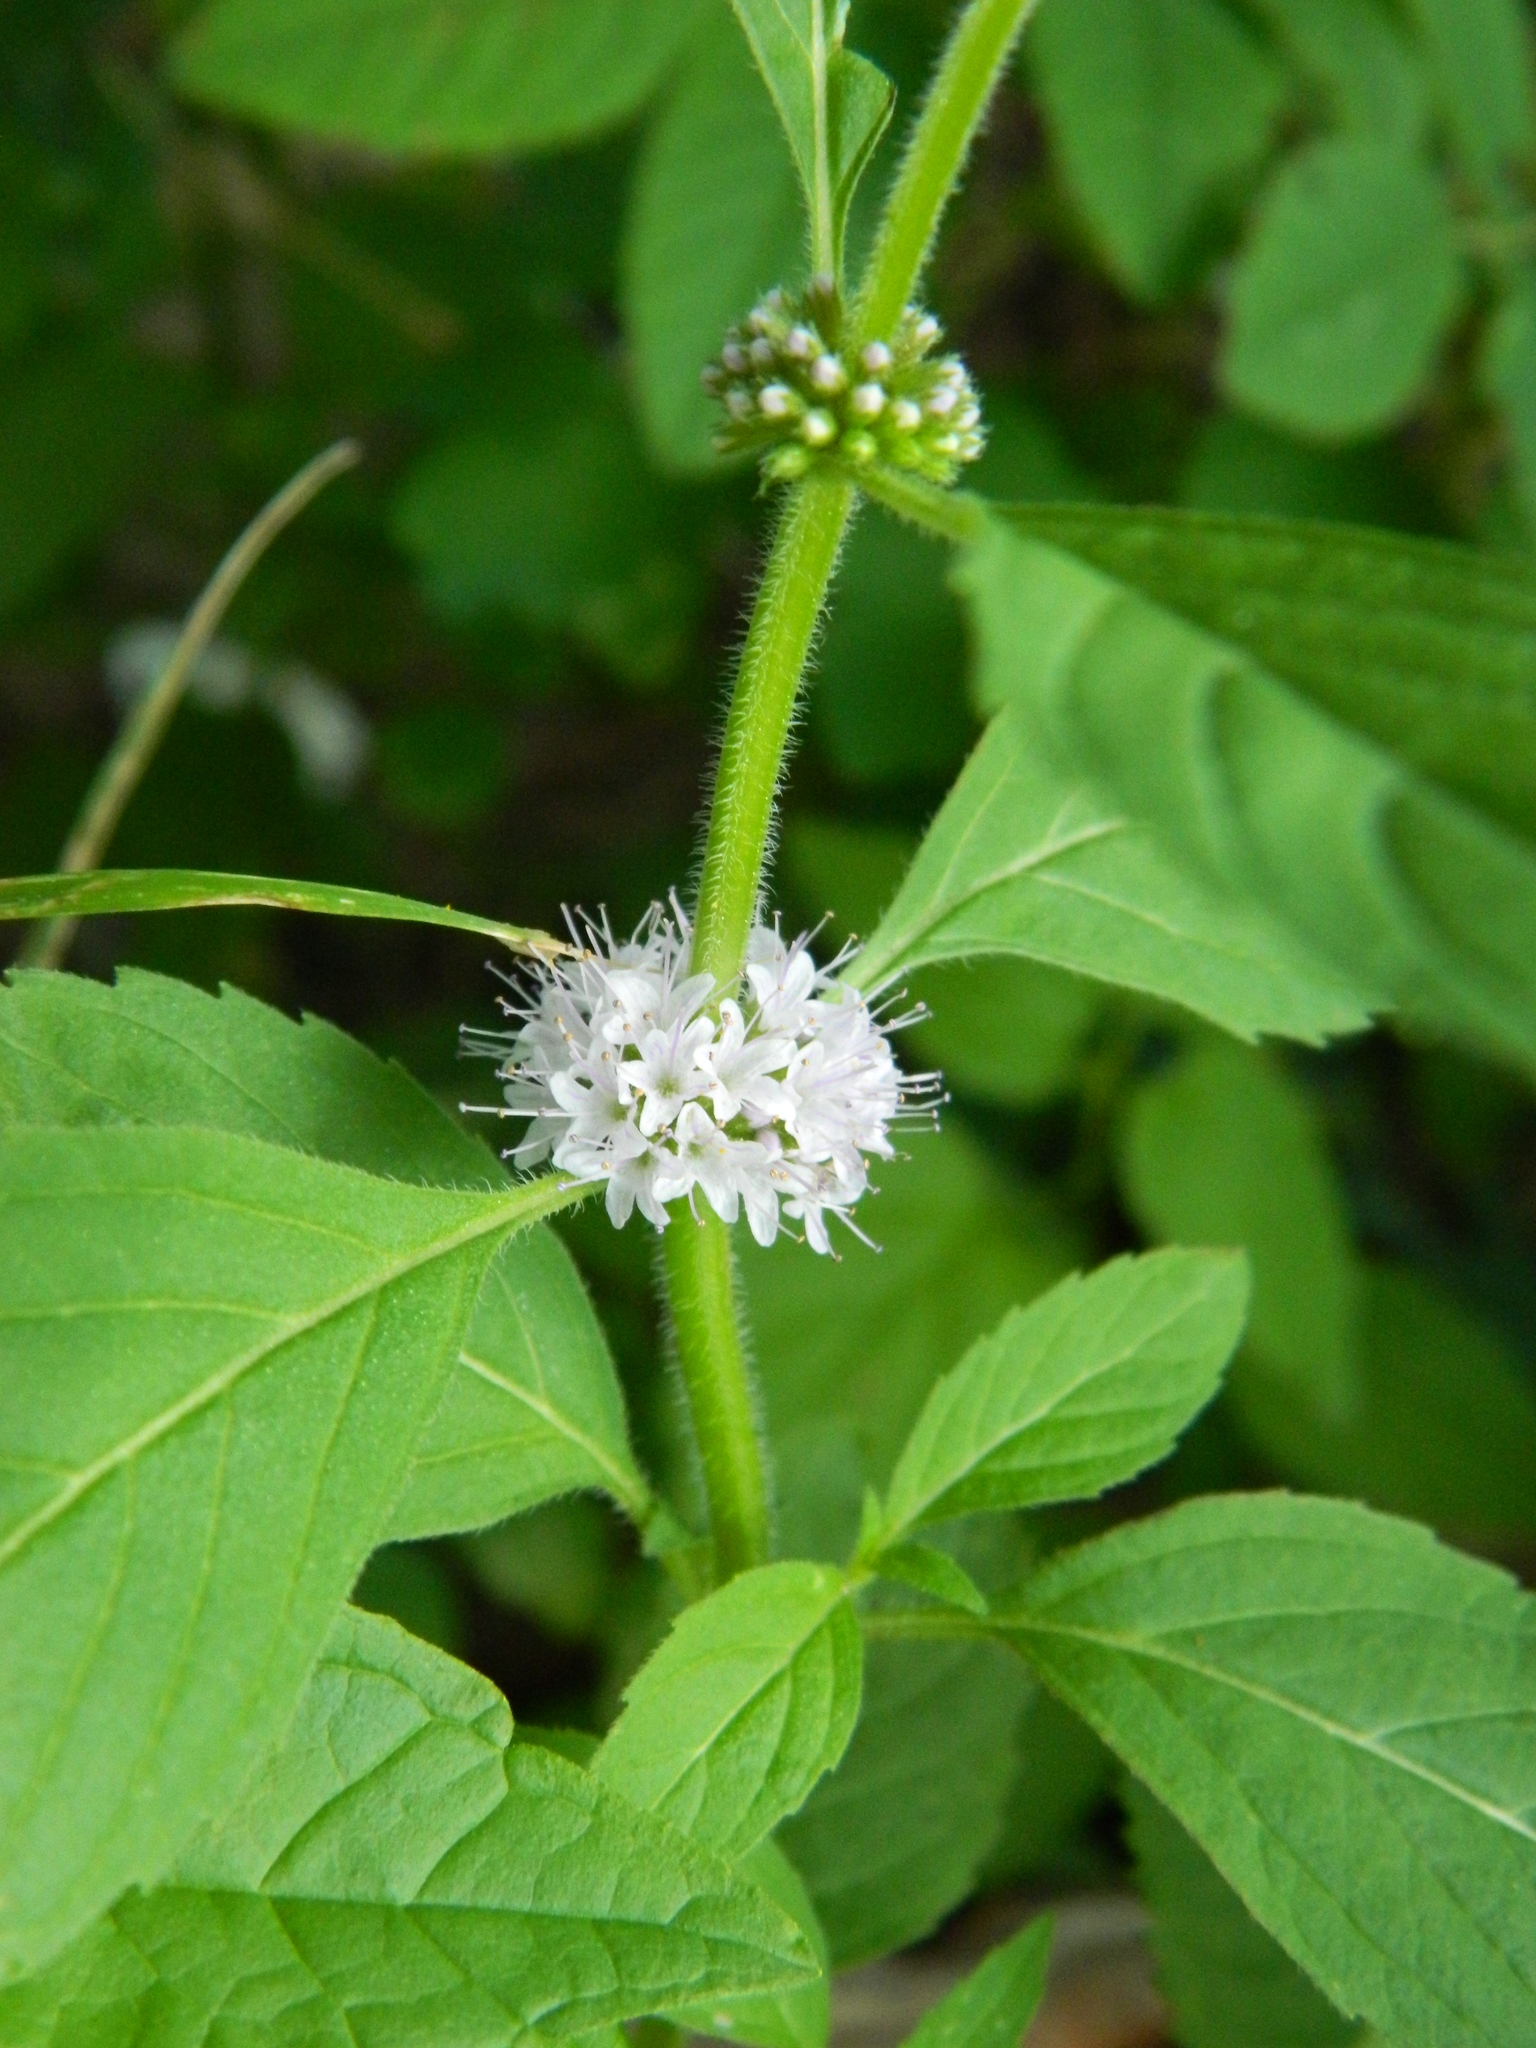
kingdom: Plantae
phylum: Tracheophyta
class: Magnoliopsida
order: Lamiales
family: Lamiaceae
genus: Mentha
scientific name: Mentha canadensis
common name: American corn mint
